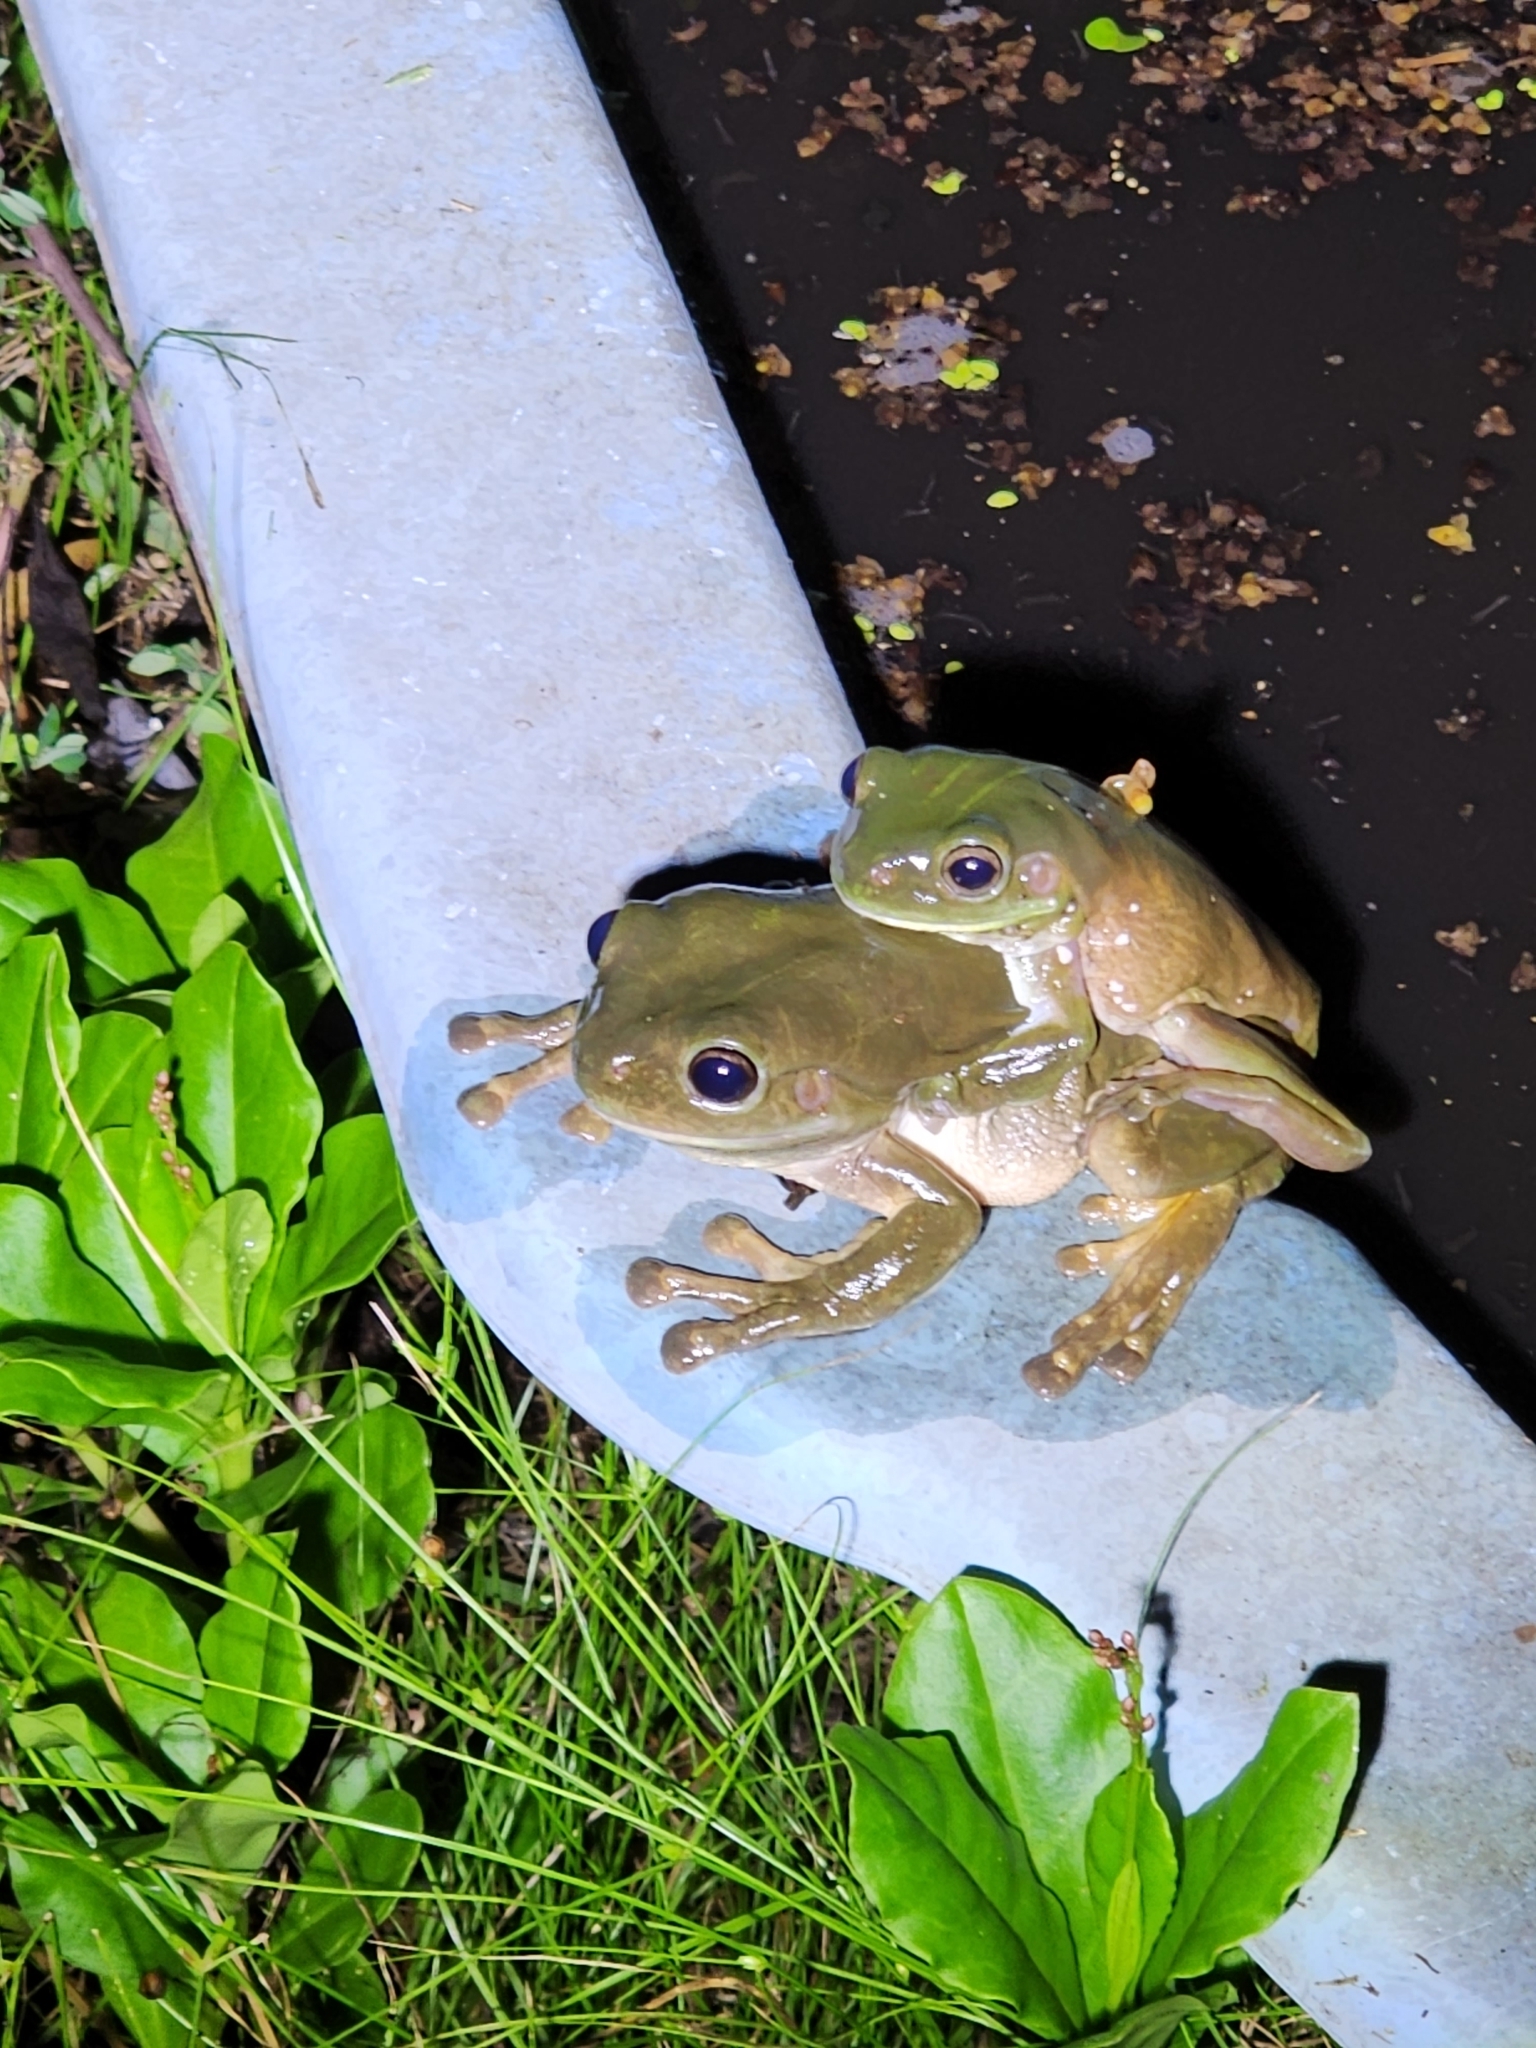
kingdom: Animalia
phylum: Chordata
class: Amphibia
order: Anura
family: Pelodryadidae
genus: Ranoidea
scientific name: Ranoidea caerulea
